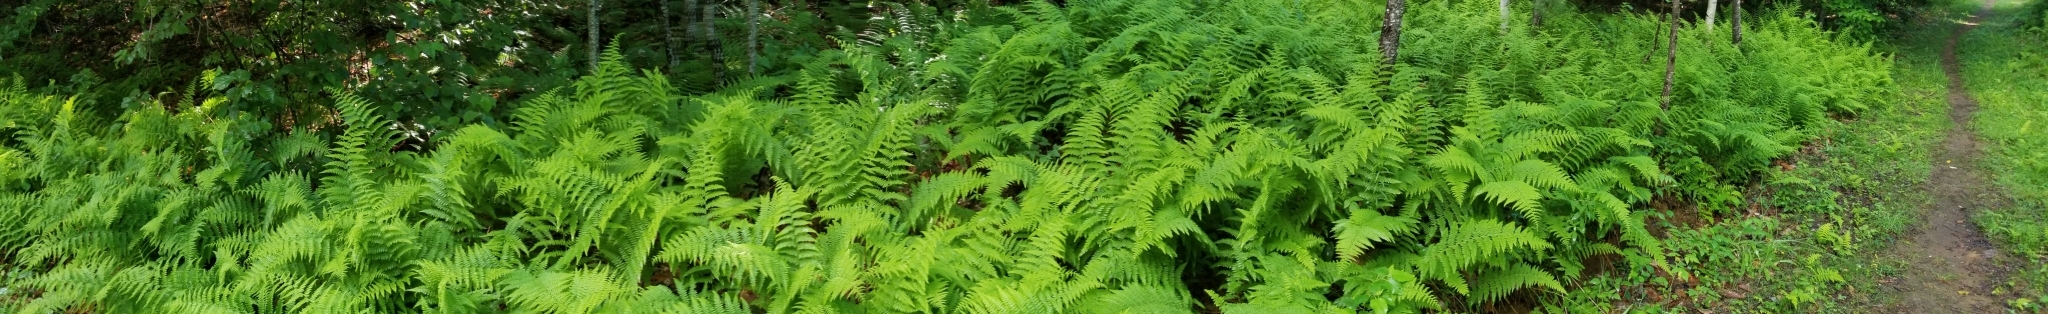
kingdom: Plantae
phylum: Tracheophyta
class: Polypodiopsida
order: Polypodiales
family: Dennstaedtiaceae
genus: Sitobolium
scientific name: Sitobolium punctilobum
